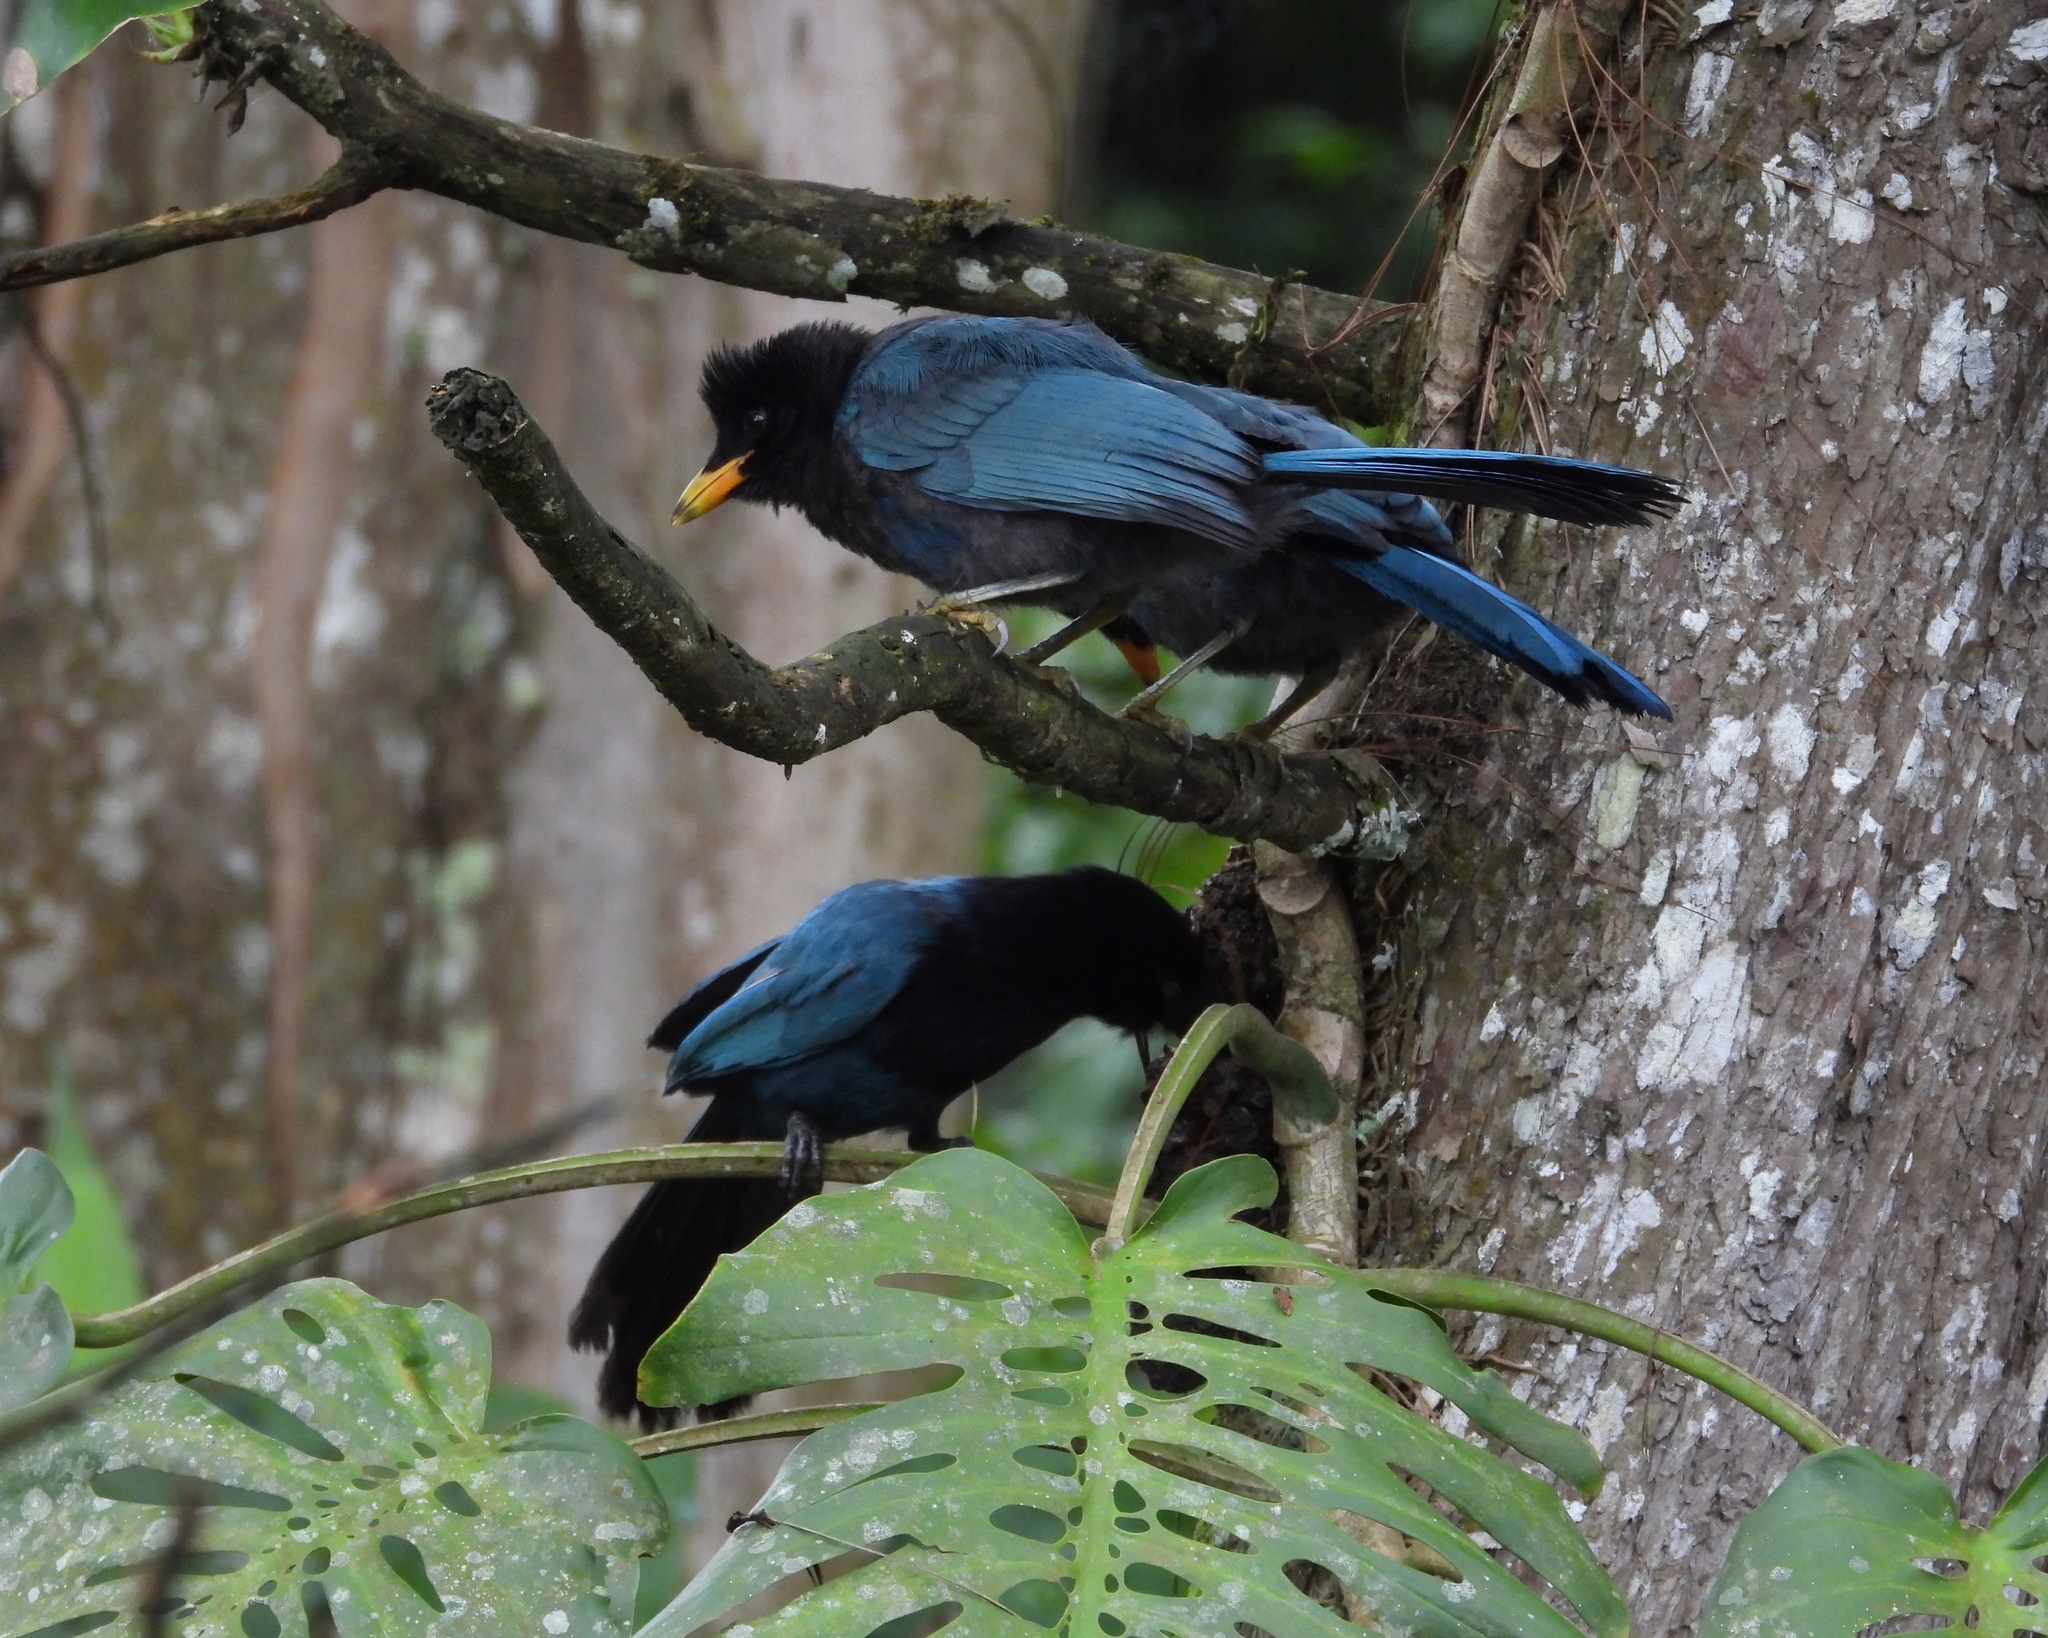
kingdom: Animalia
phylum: Chordata
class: Aves
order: Passeriformes
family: Corvidae
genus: Cyanocorax
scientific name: Cyanocorax melanocyaneus
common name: Bushy-crested jay
